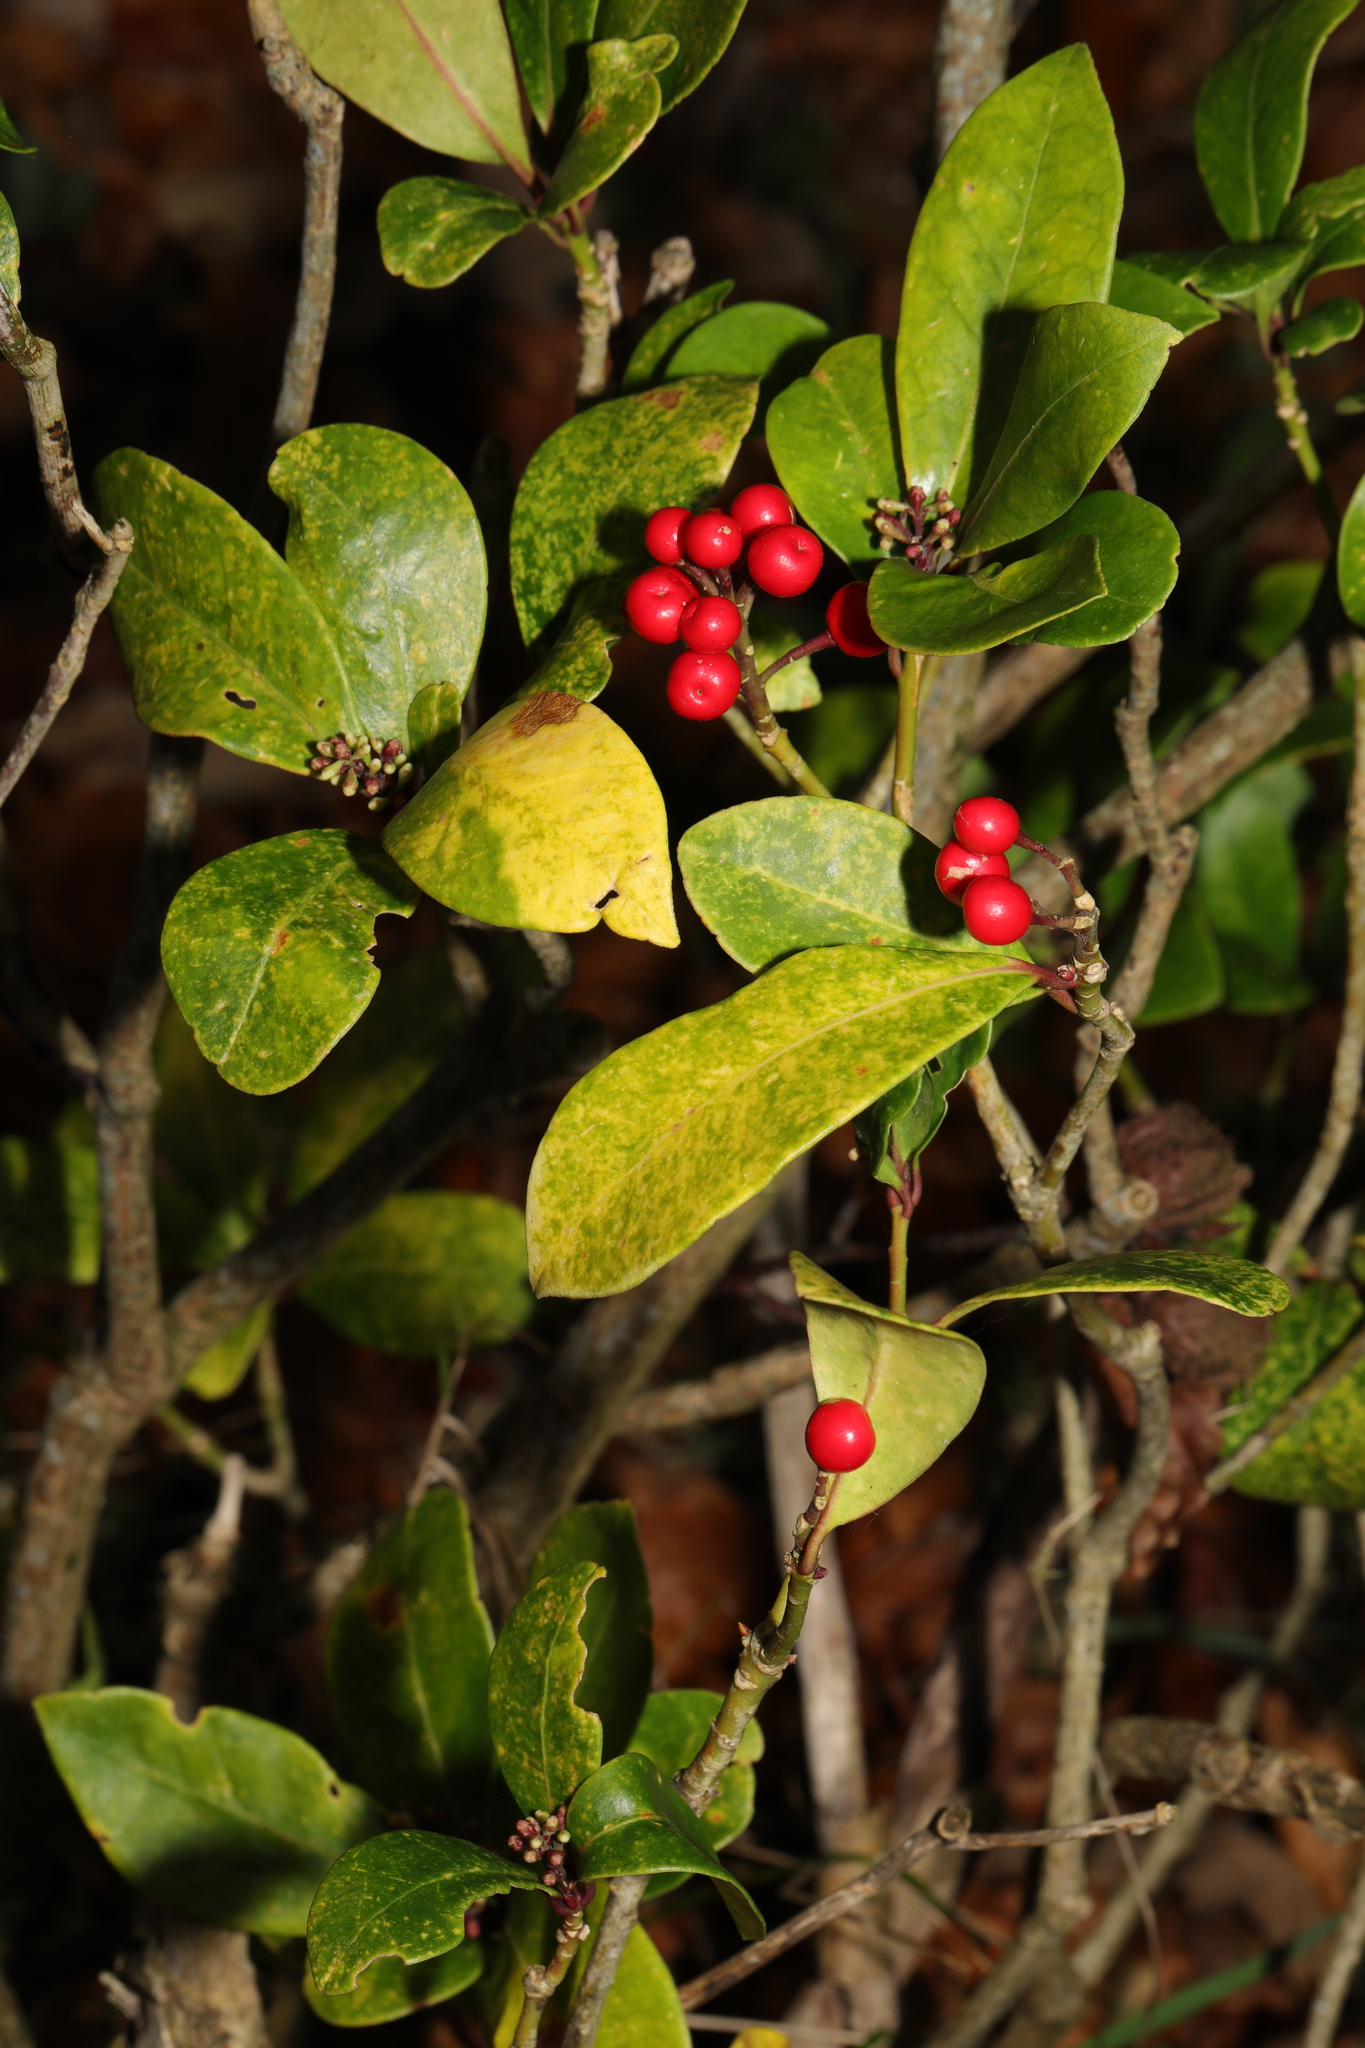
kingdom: Plantae
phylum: Tracheophyta
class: Magnoliopsida
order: Sapindales
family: Rutaceae
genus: Skimmia
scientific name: Skimmia japonica
